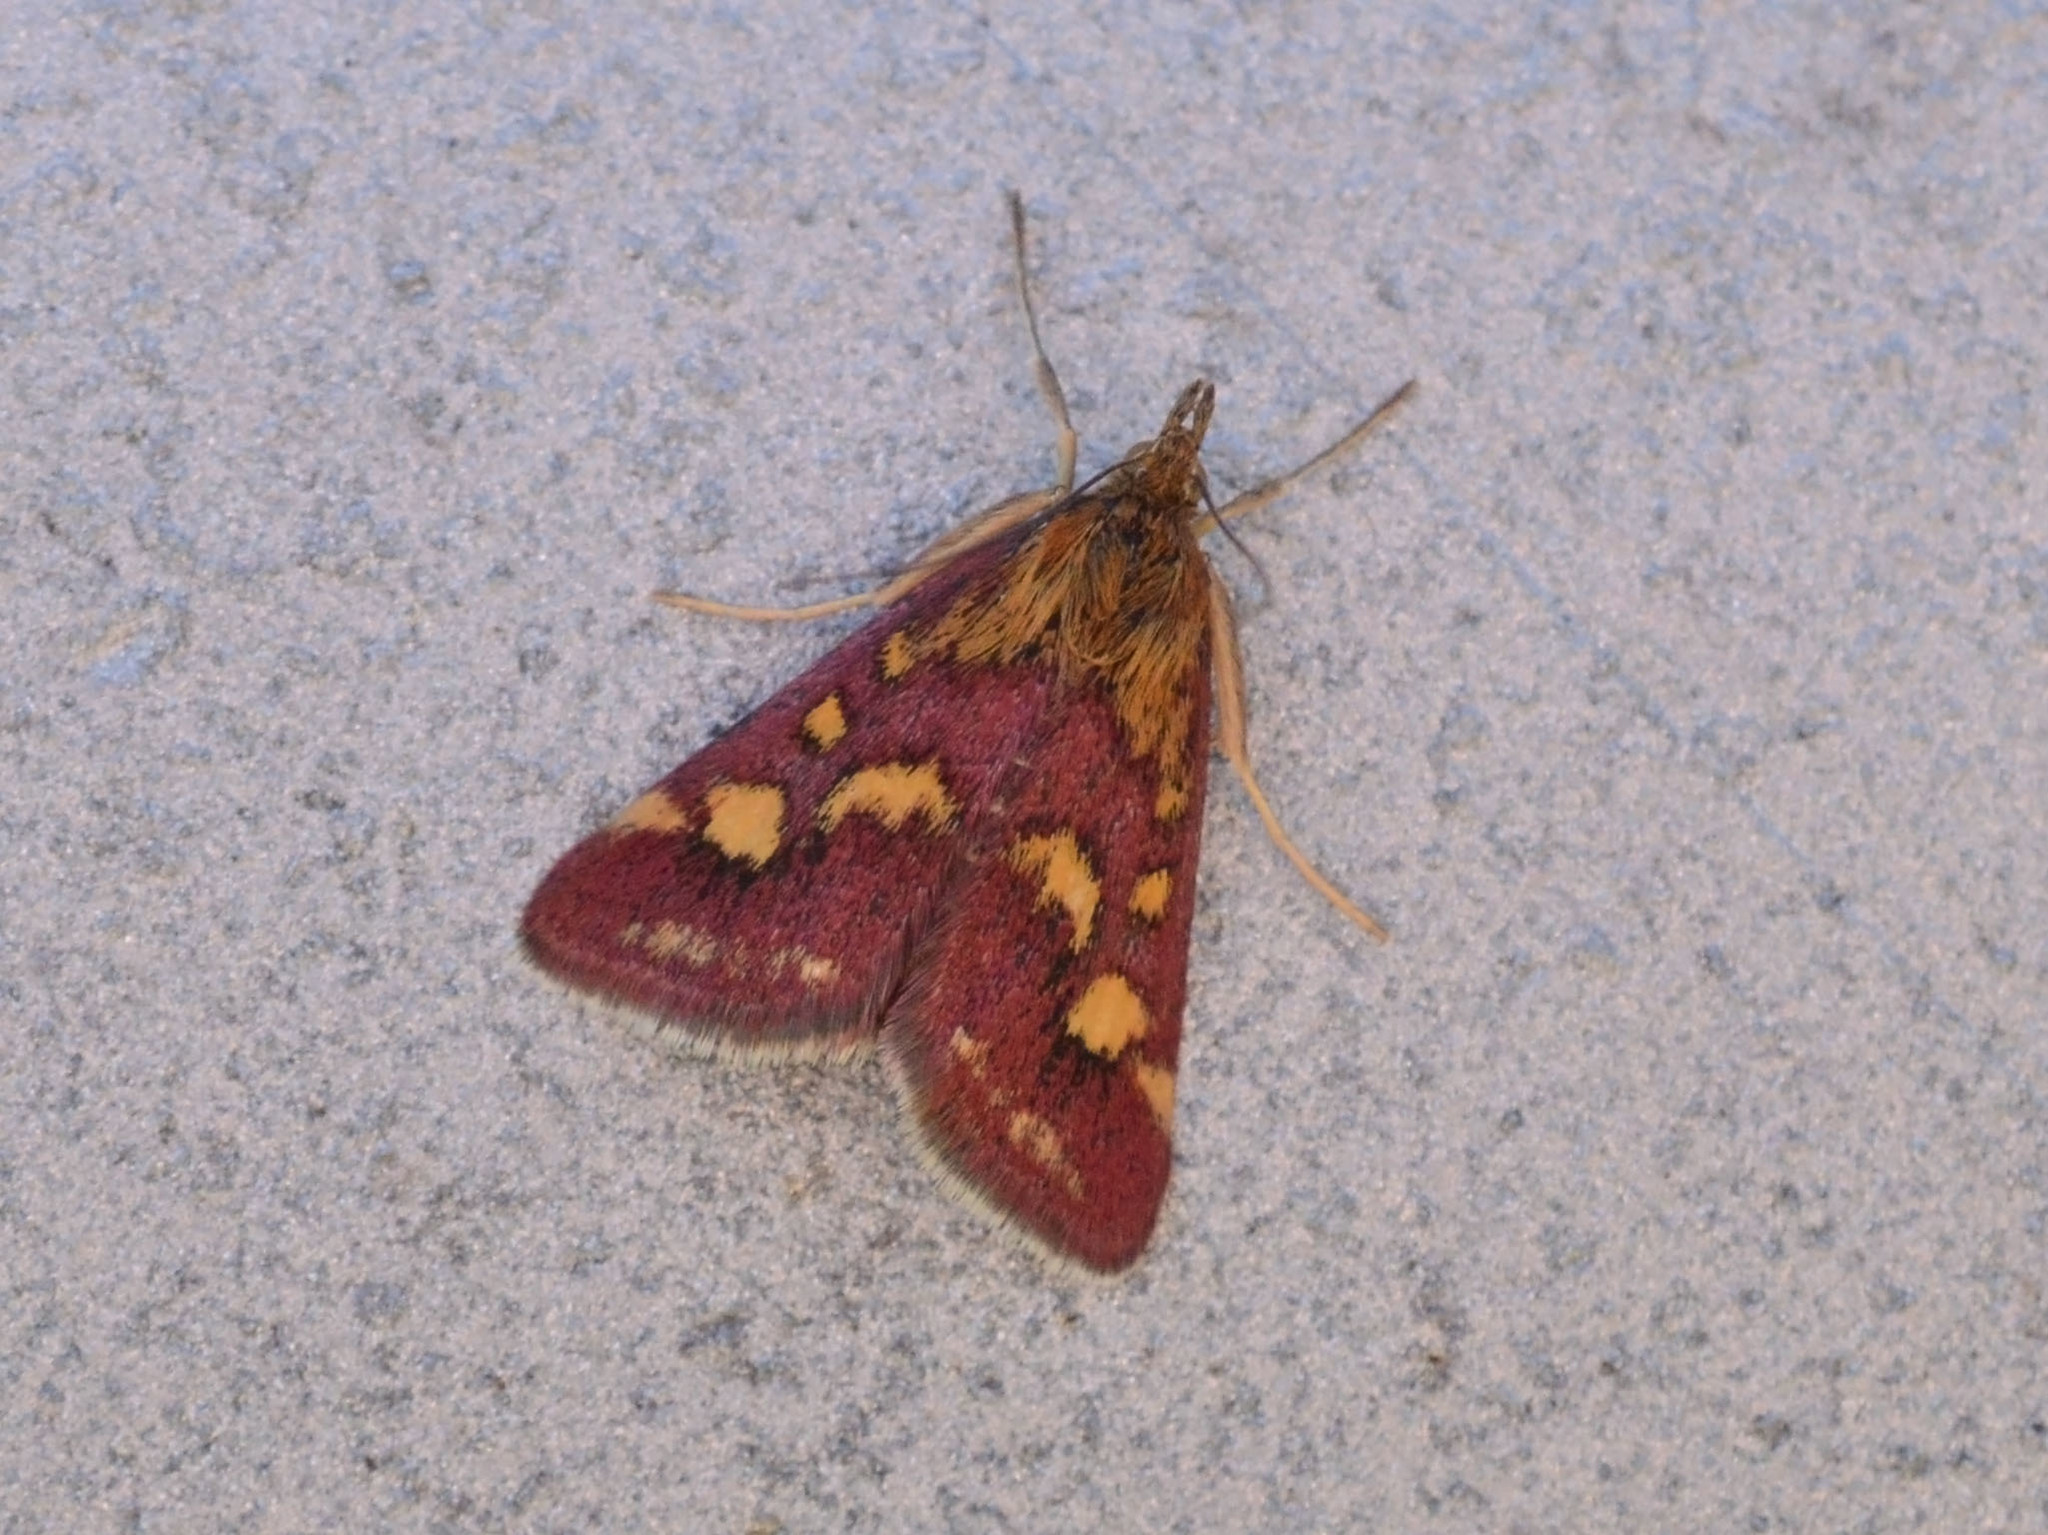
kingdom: Animalia
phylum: Arthropoda
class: Insecta
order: Lepidoptera
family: Crambidae
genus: Pyrausta
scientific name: Pyrausta purpuralis
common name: Common purple & gold
